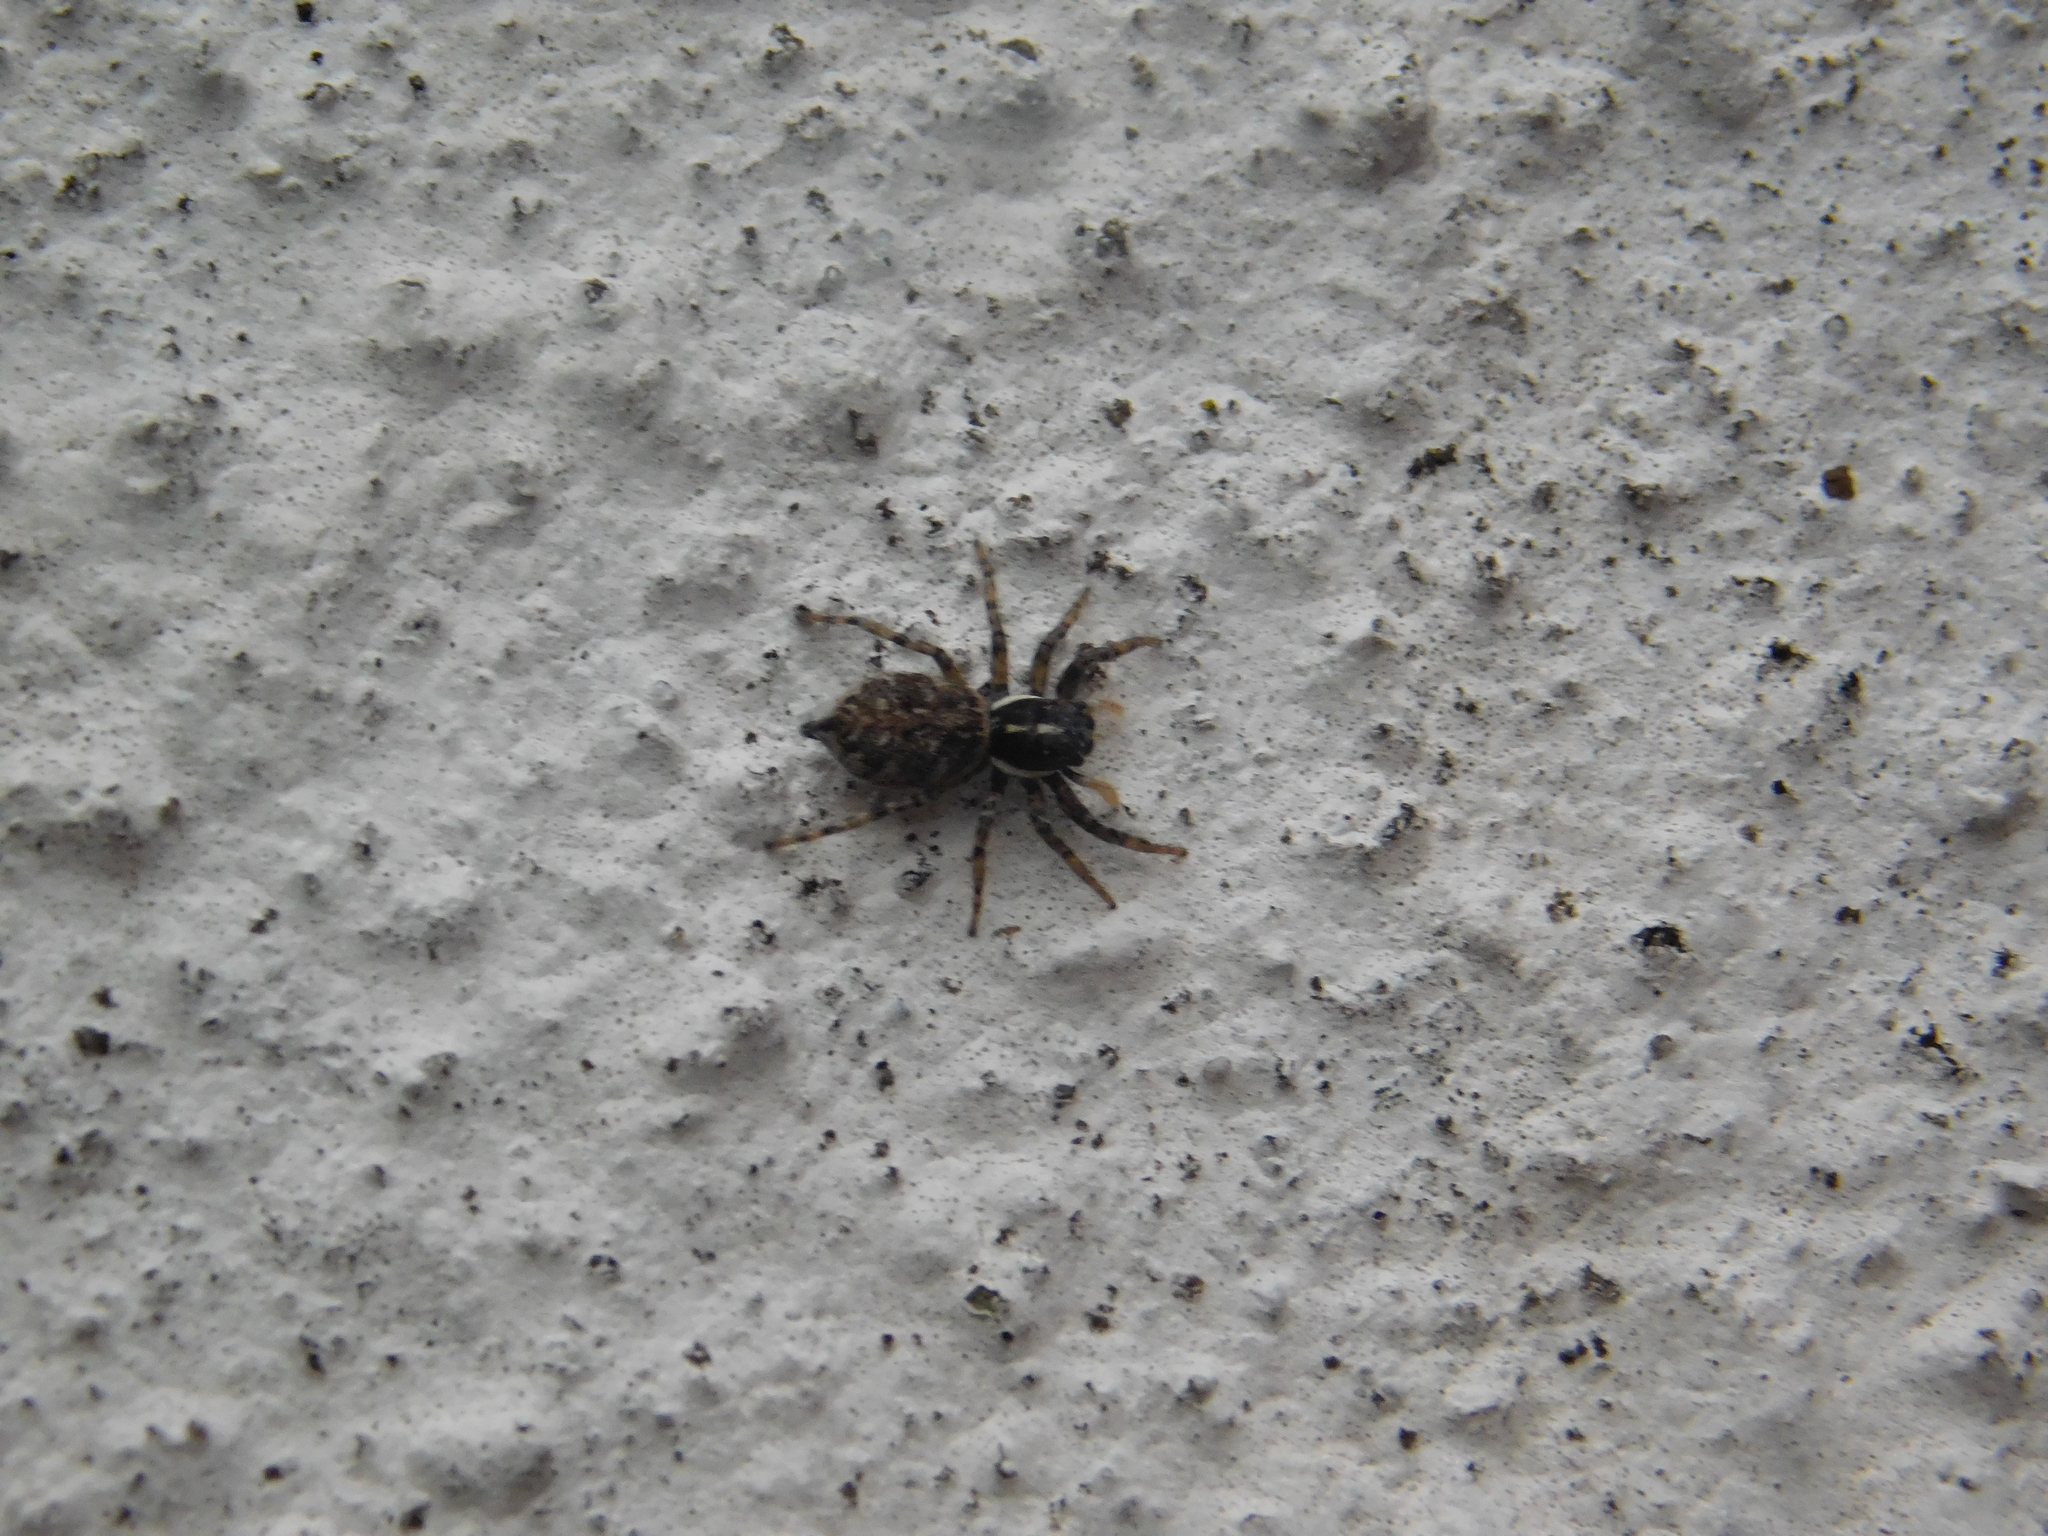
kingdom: Animalia
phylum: Arthropoda
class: Arachnida
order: Araneae
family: Salticidae
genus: Menemerus
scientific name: Menemerus semilimbatus
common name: Jumping spider
